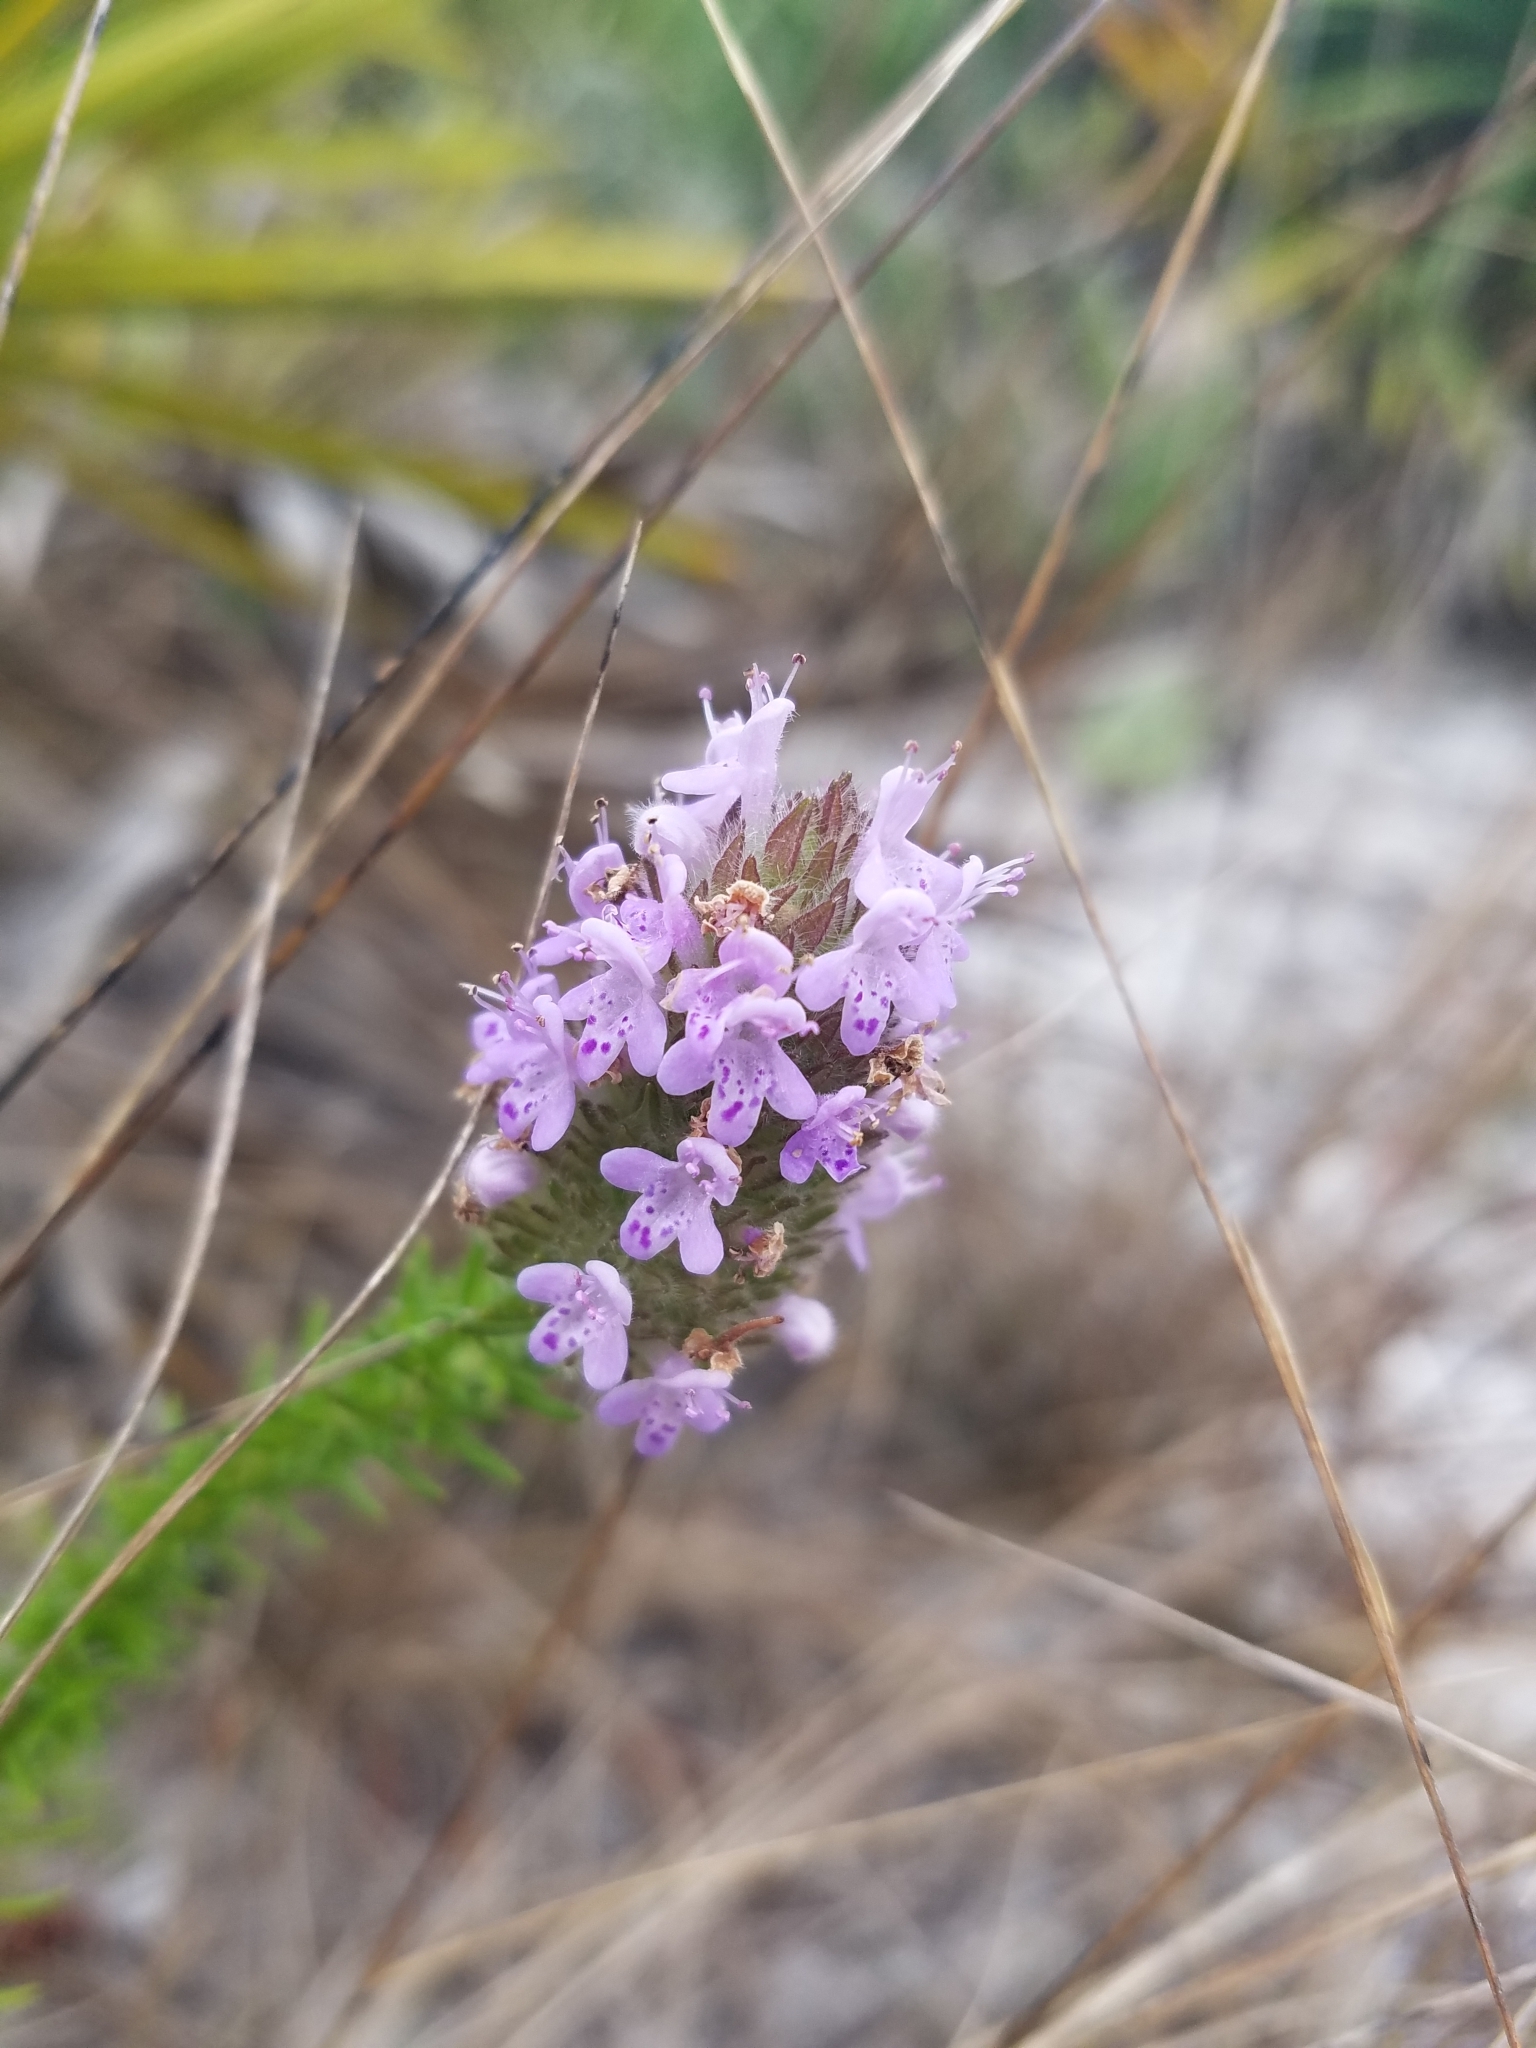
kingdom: Plantae
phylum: Tracheophyta
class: Magnoliopsida
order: Lamiales
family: Lamiaceae
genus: Piloblephis
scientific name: Piloblephis rigida
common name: Wild pennyroyal
